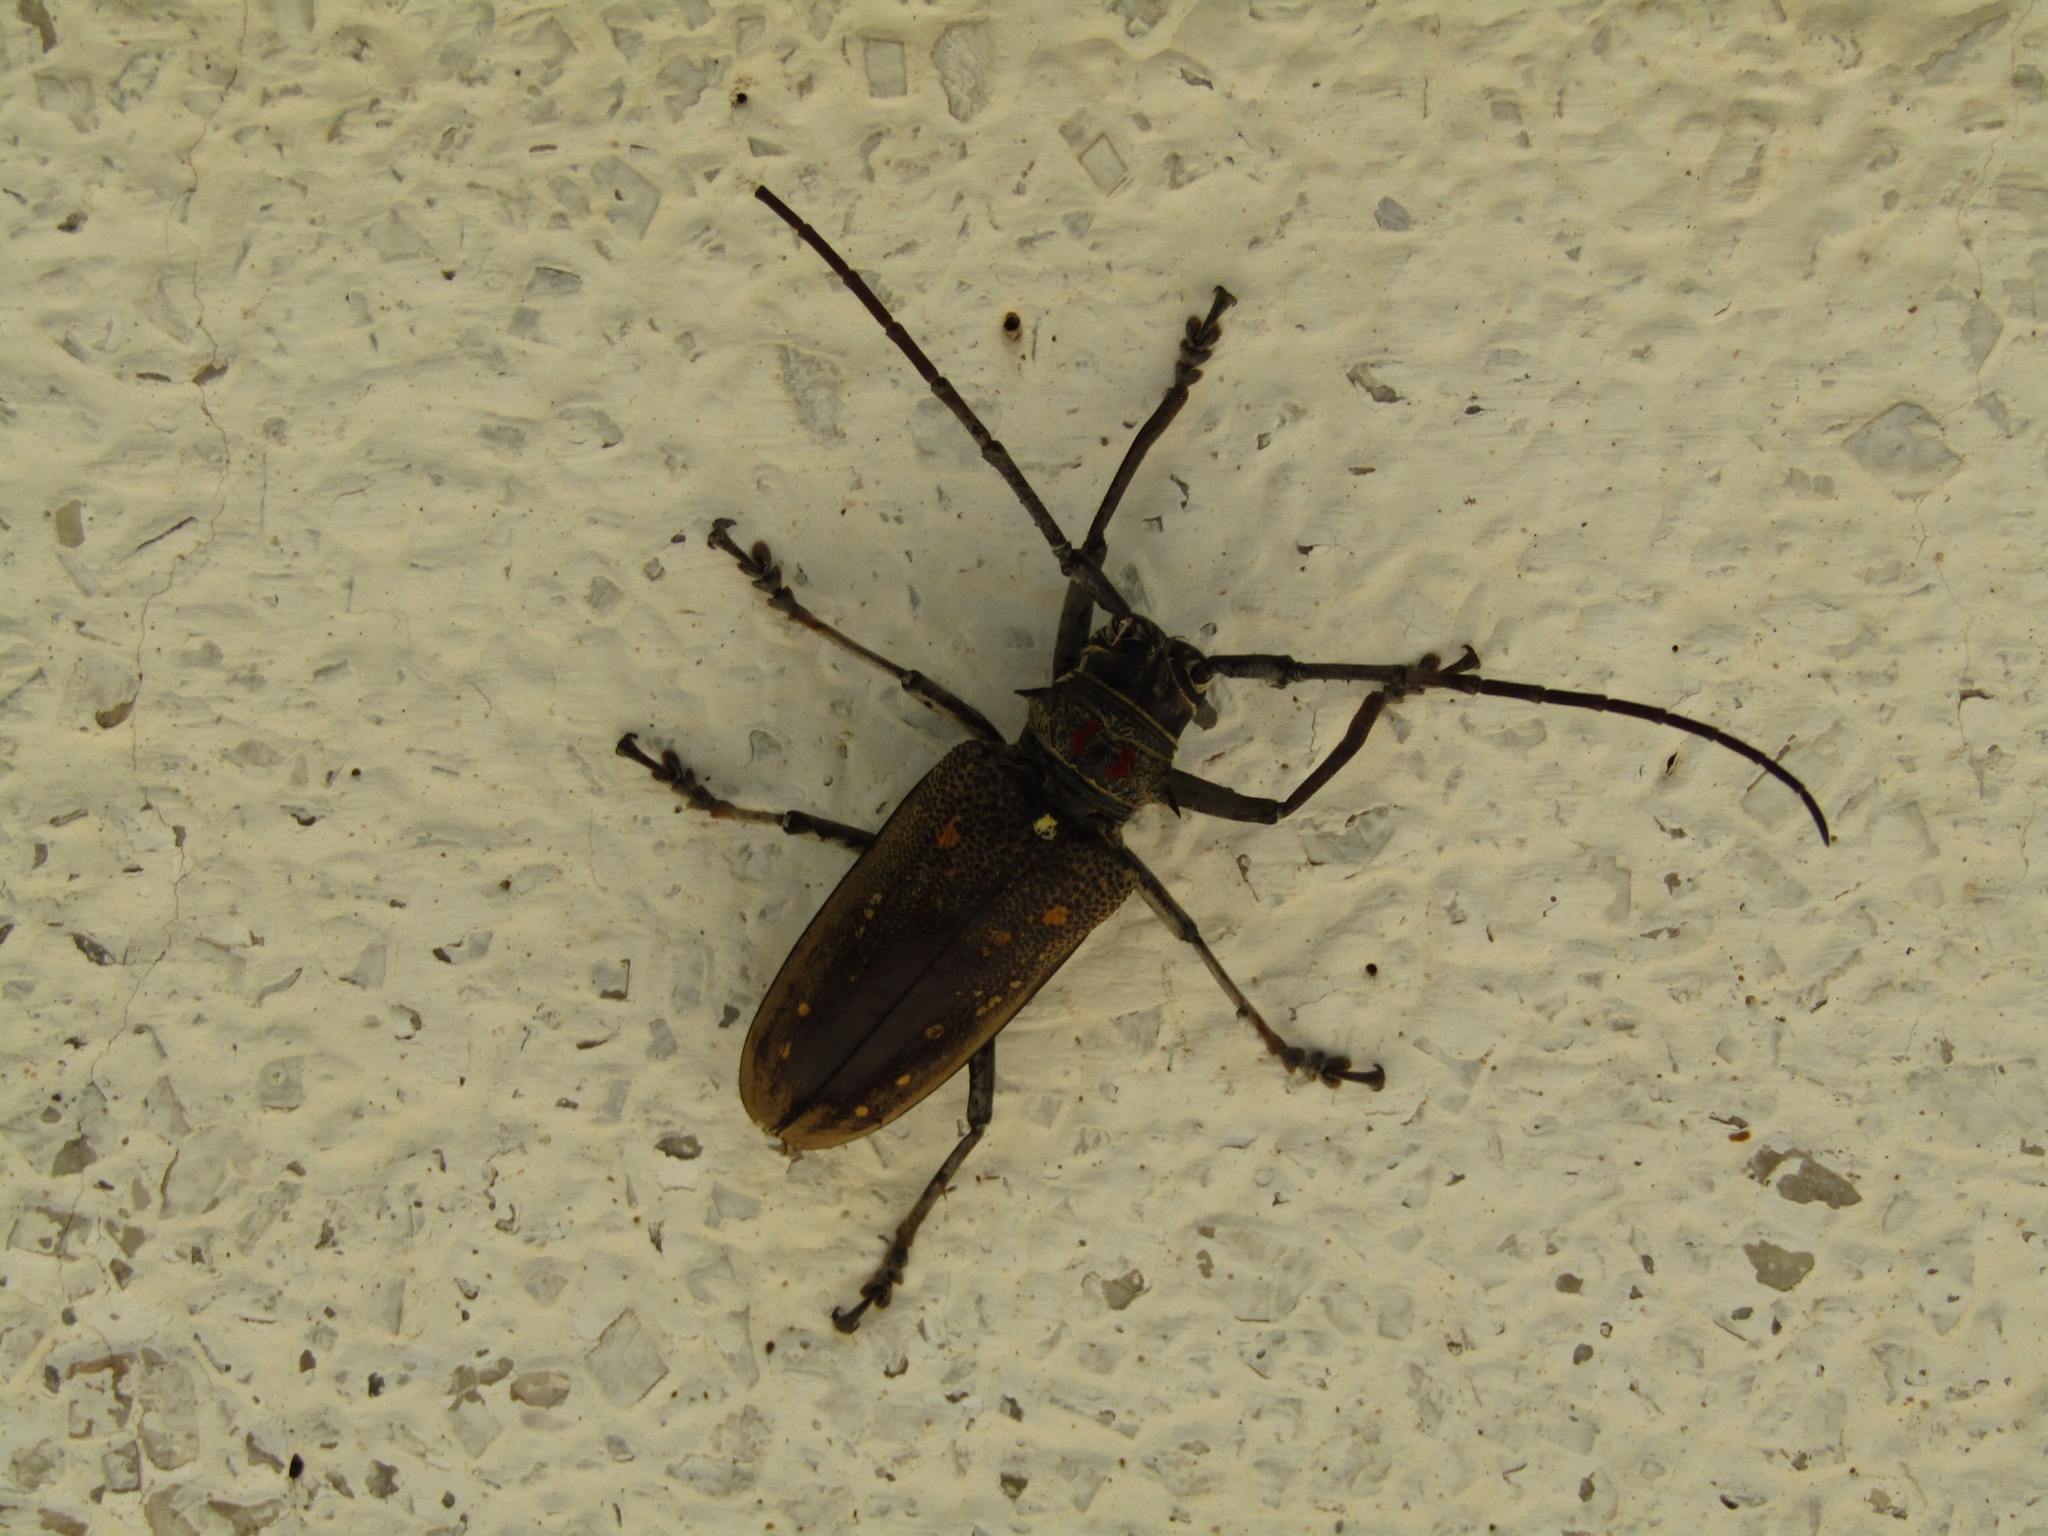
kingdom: Animalia
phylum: Arthropoda
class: Insecta
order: Coleoptera
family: Cerambycidae
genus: Batocera
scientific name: Batocera davidis
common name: Long-horned beetle
